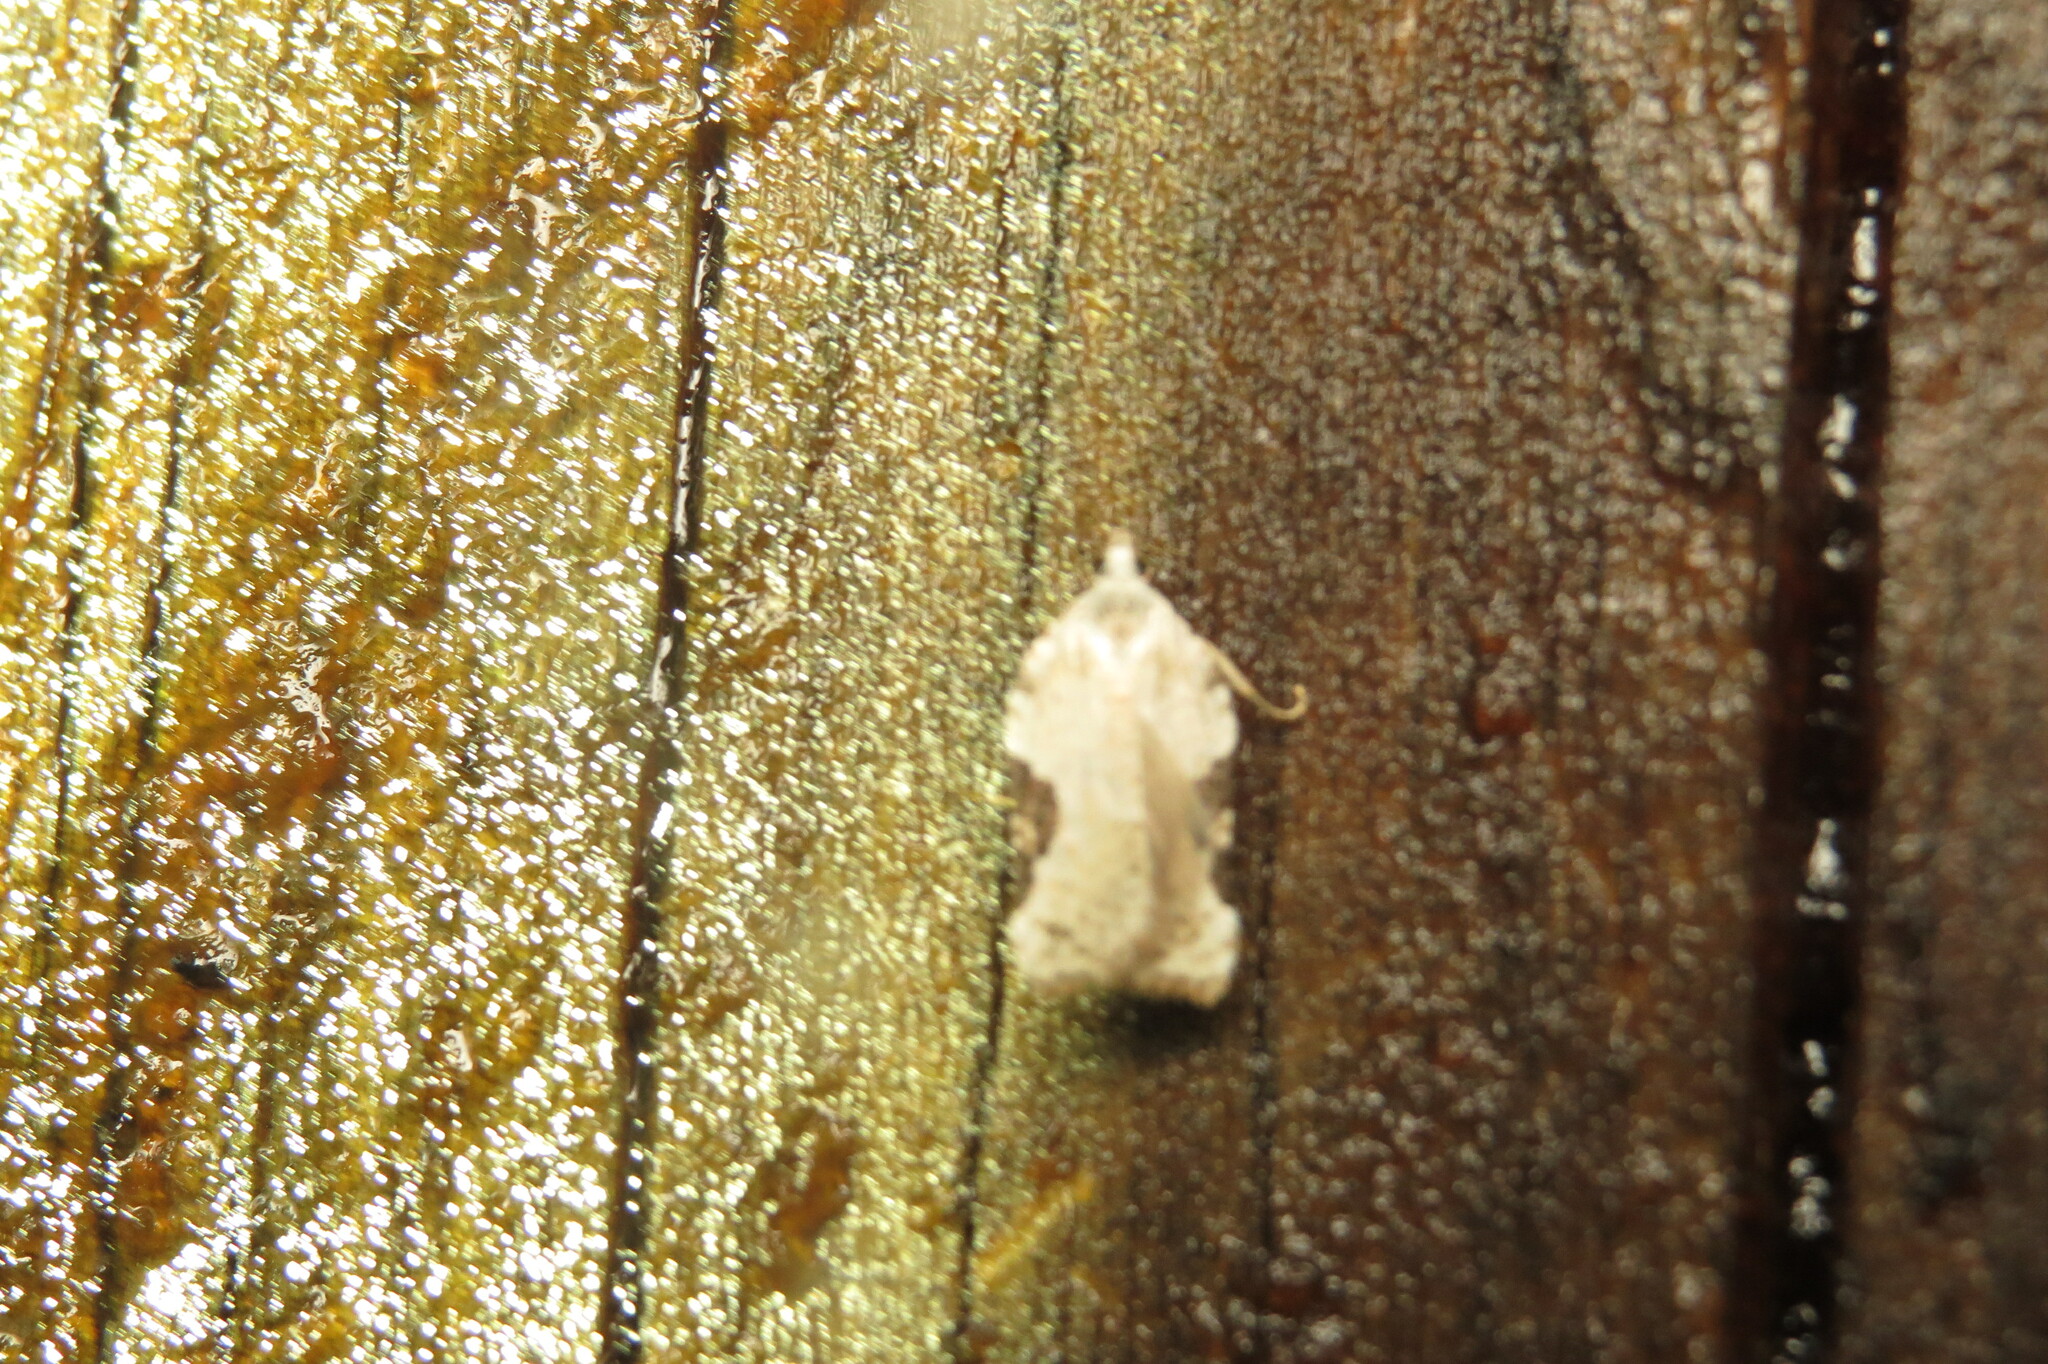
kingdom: Animalia
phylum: Arthropoda
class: Insecta
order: Lepidoptera
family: Tortricidae
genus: Acleris
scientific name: Acleris cervinana
